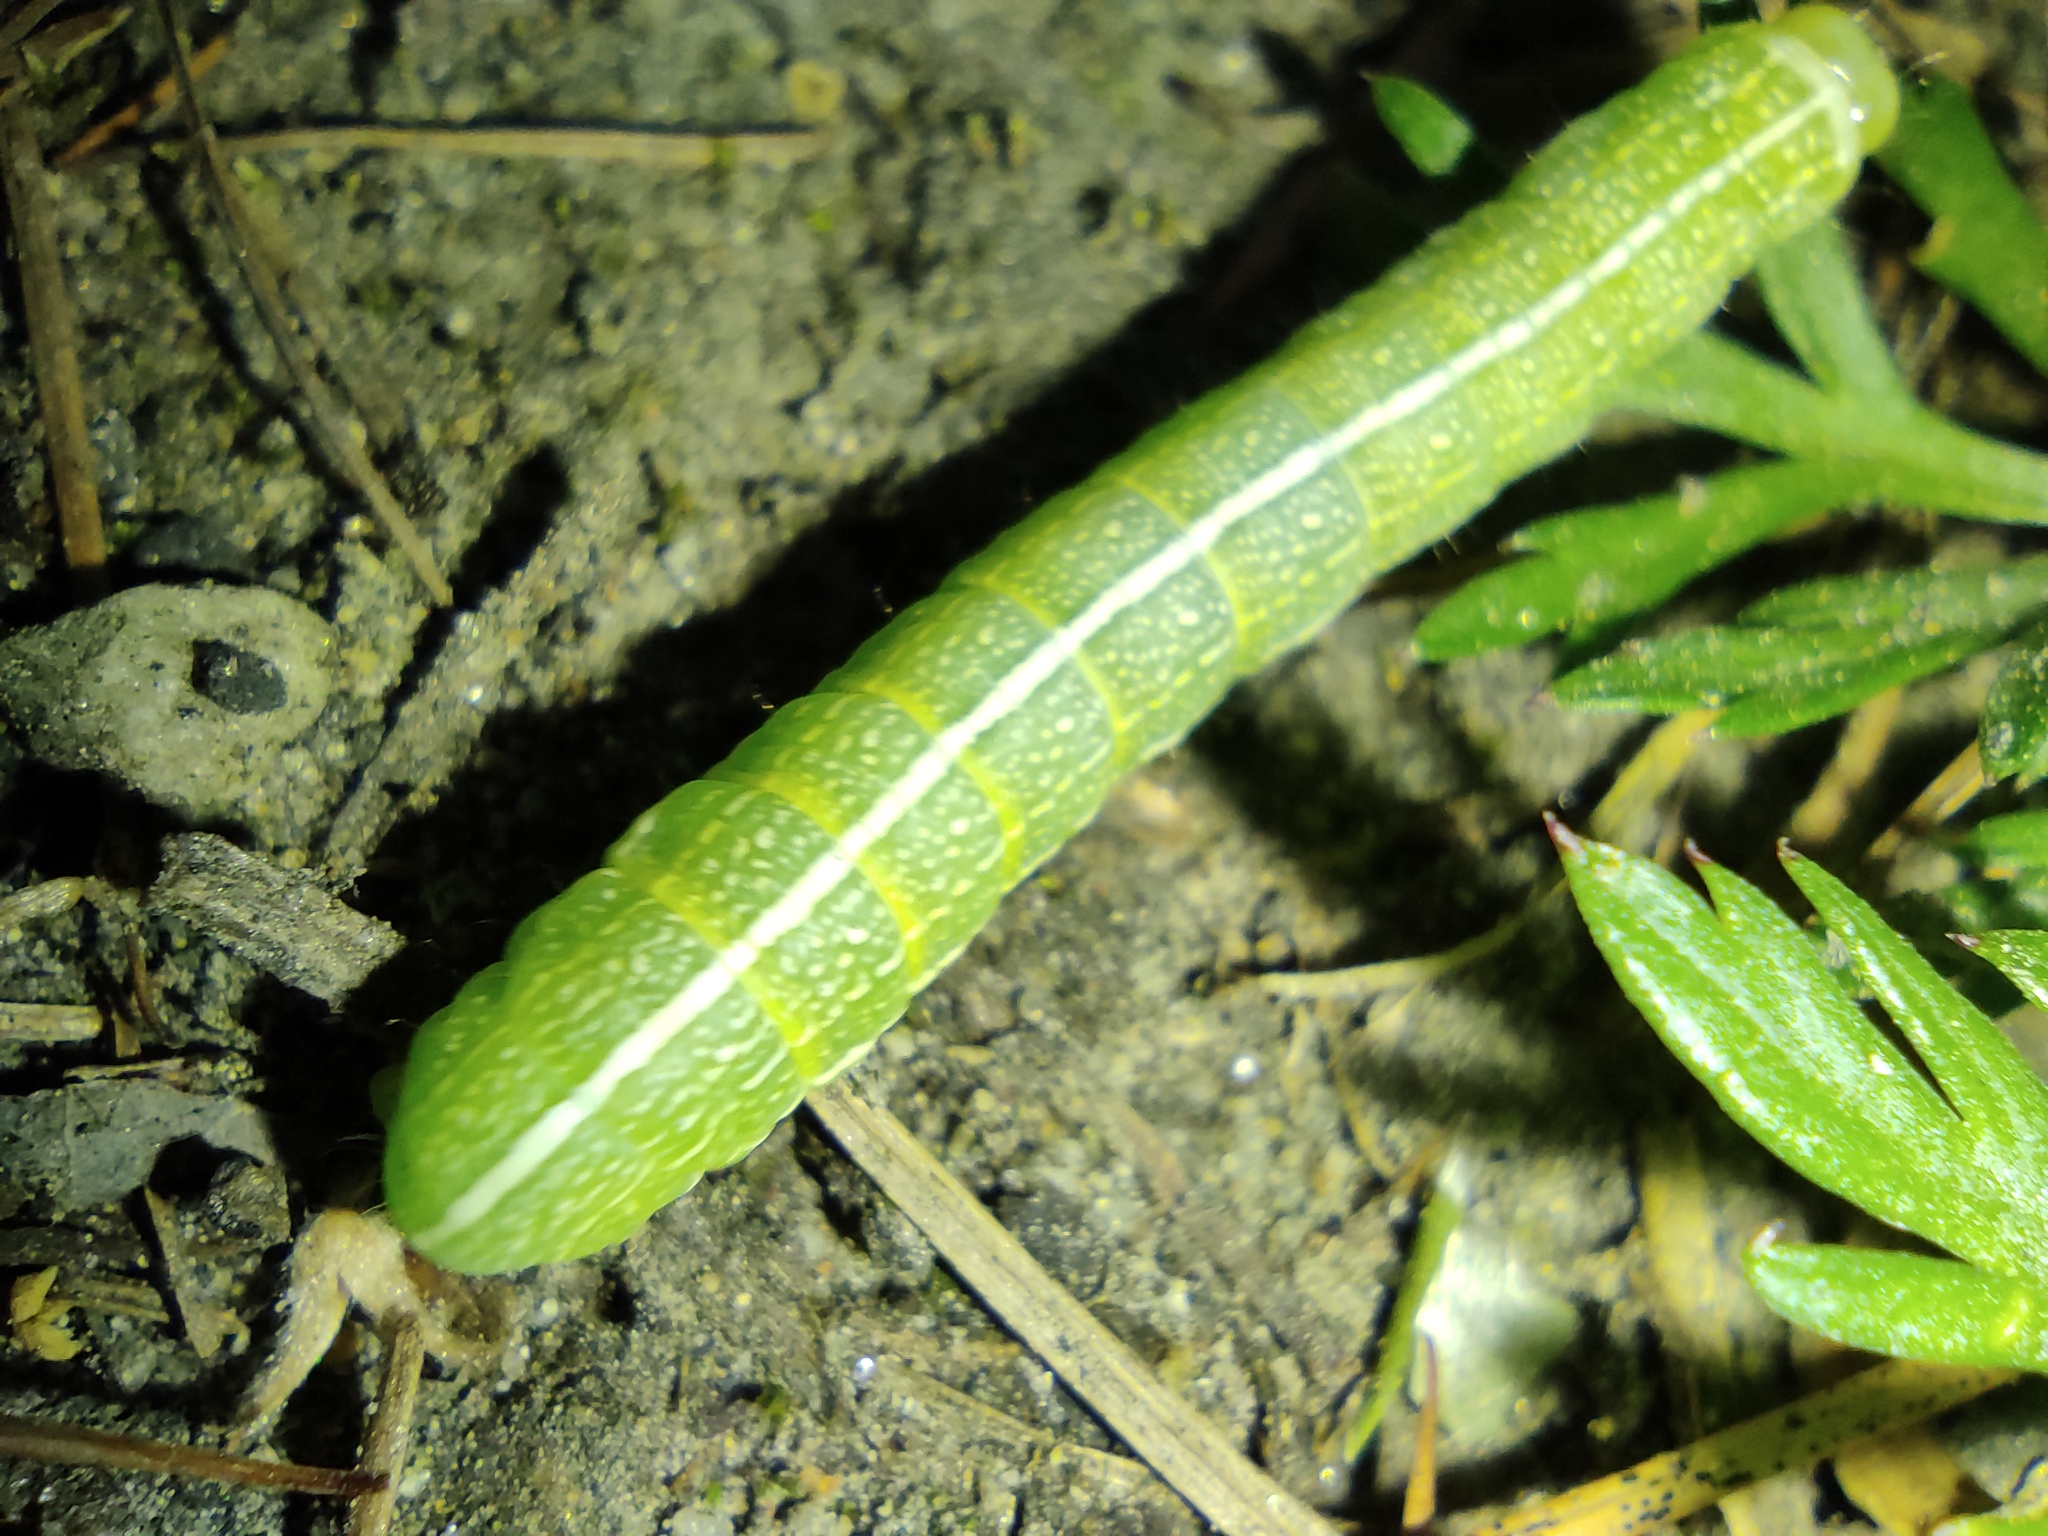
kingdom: Plantae
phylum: Tracheophyta
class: Magnoliopsida
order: Apiales
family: Apiaceae
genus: Carum
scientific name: Carum carvi
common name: Caraway
